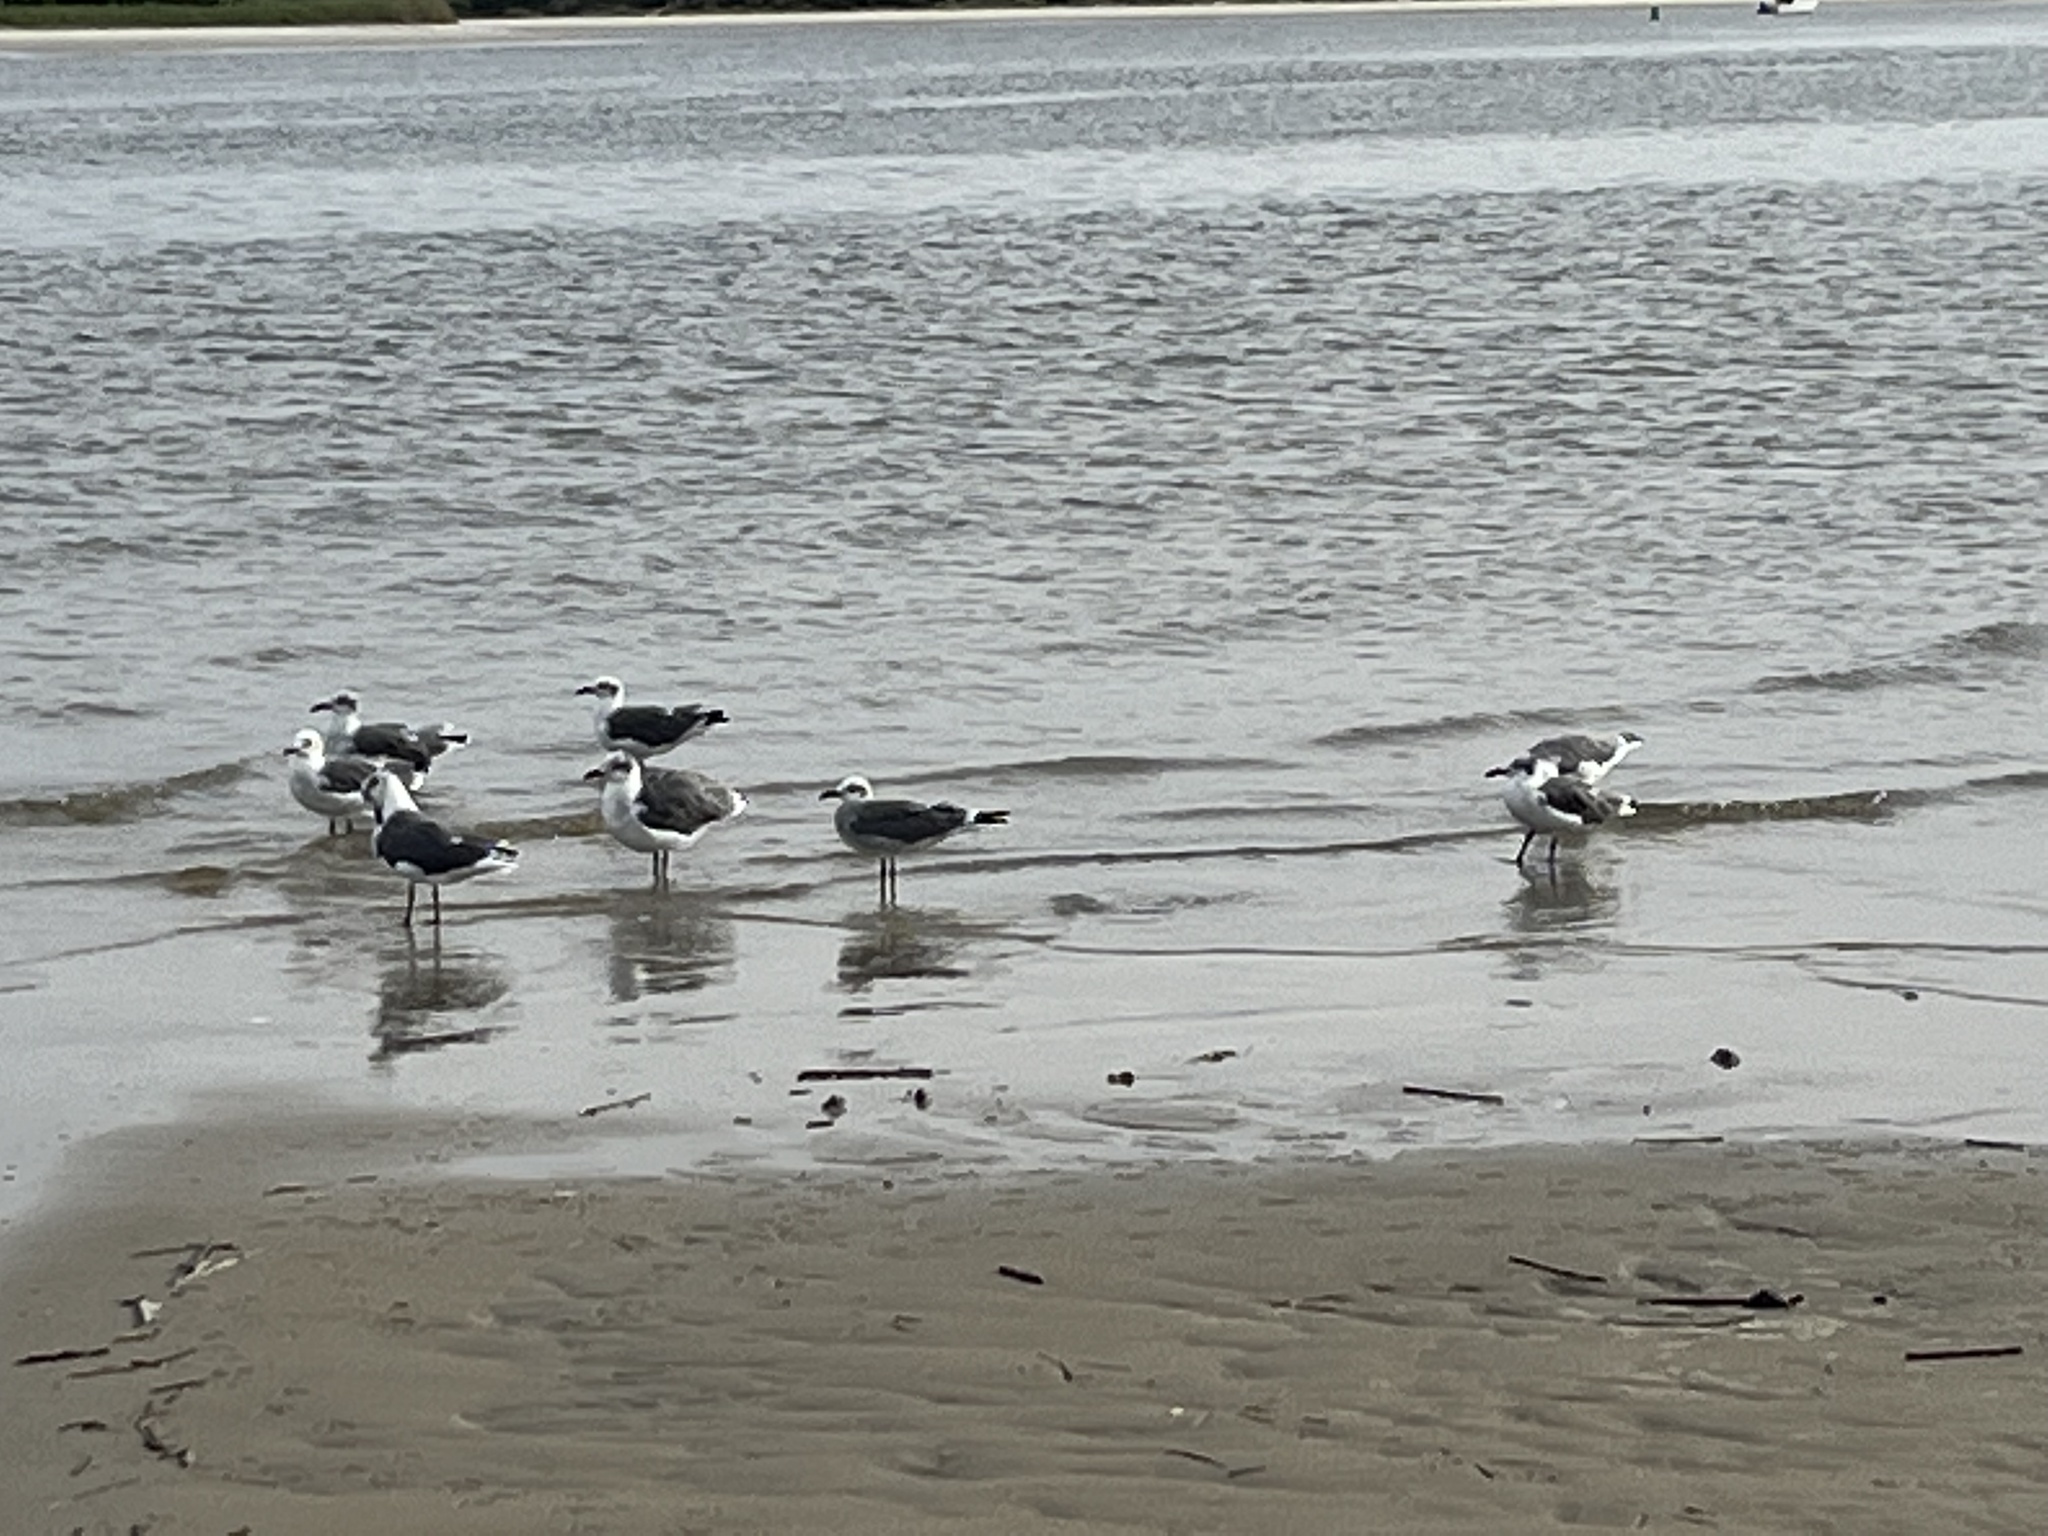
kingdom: Animalia
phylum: Chordata
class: Aves
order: Charadriiformes
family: Laridae
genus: Leucophaeus
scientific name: Leucophaeus atricilla
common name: Laughing gull
